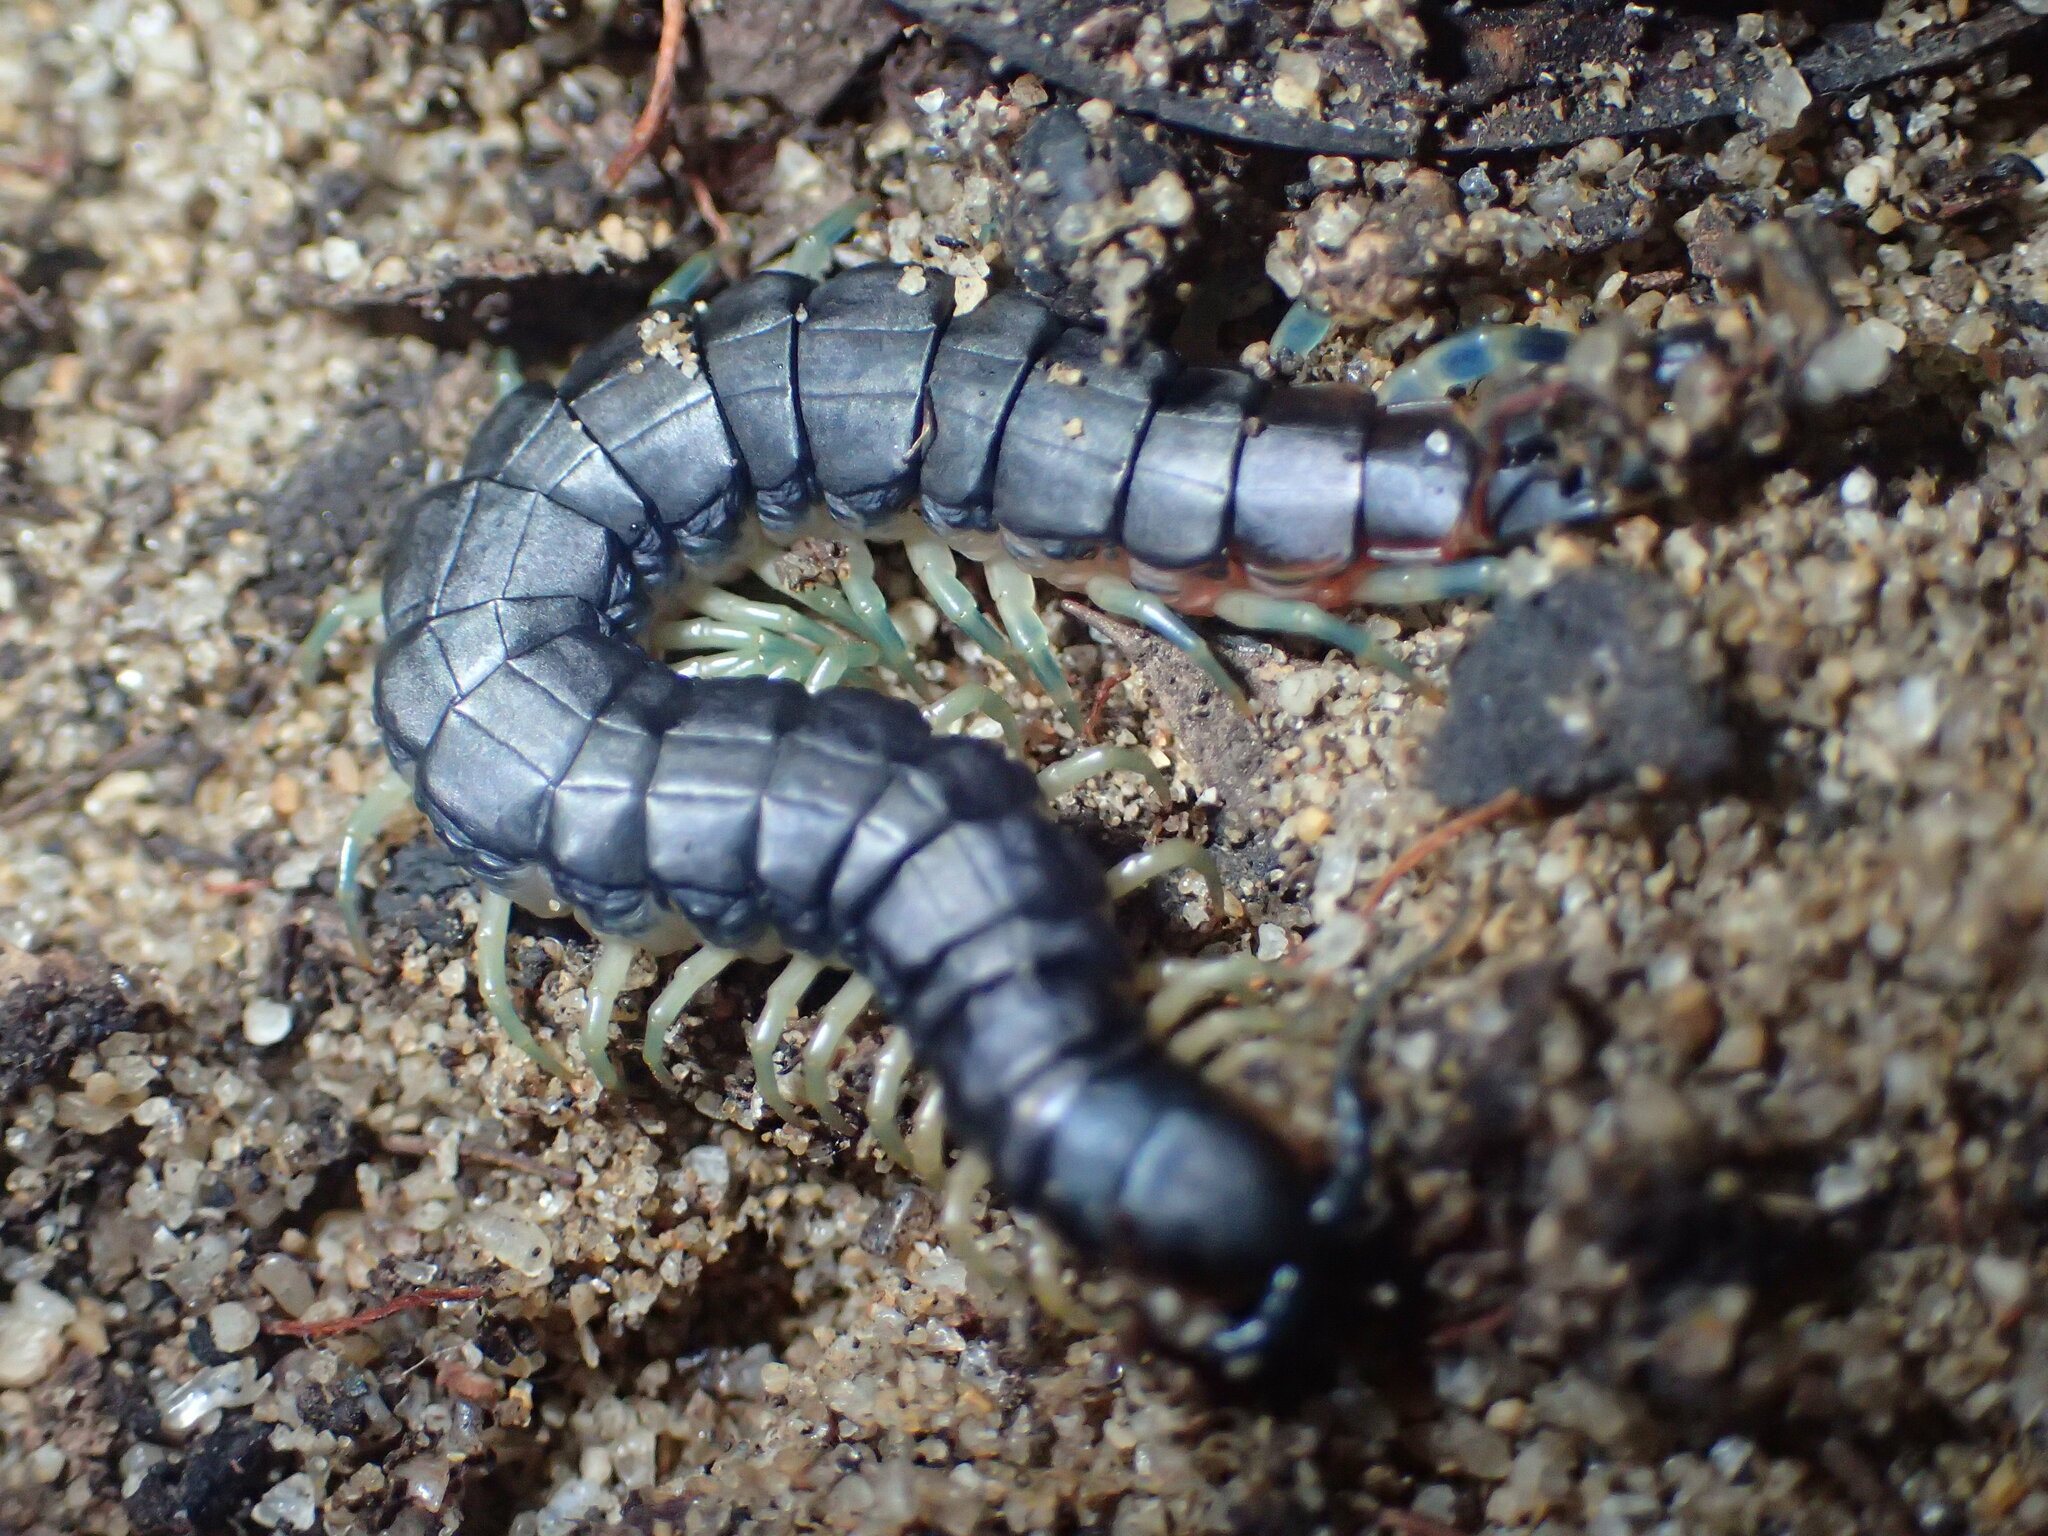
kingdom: Animalia
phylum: Arthropoda
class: Chilopoda
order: Scolopendromorpha
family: Scolopendridae
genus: Scolopendra
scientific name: Scolopendra laeta
